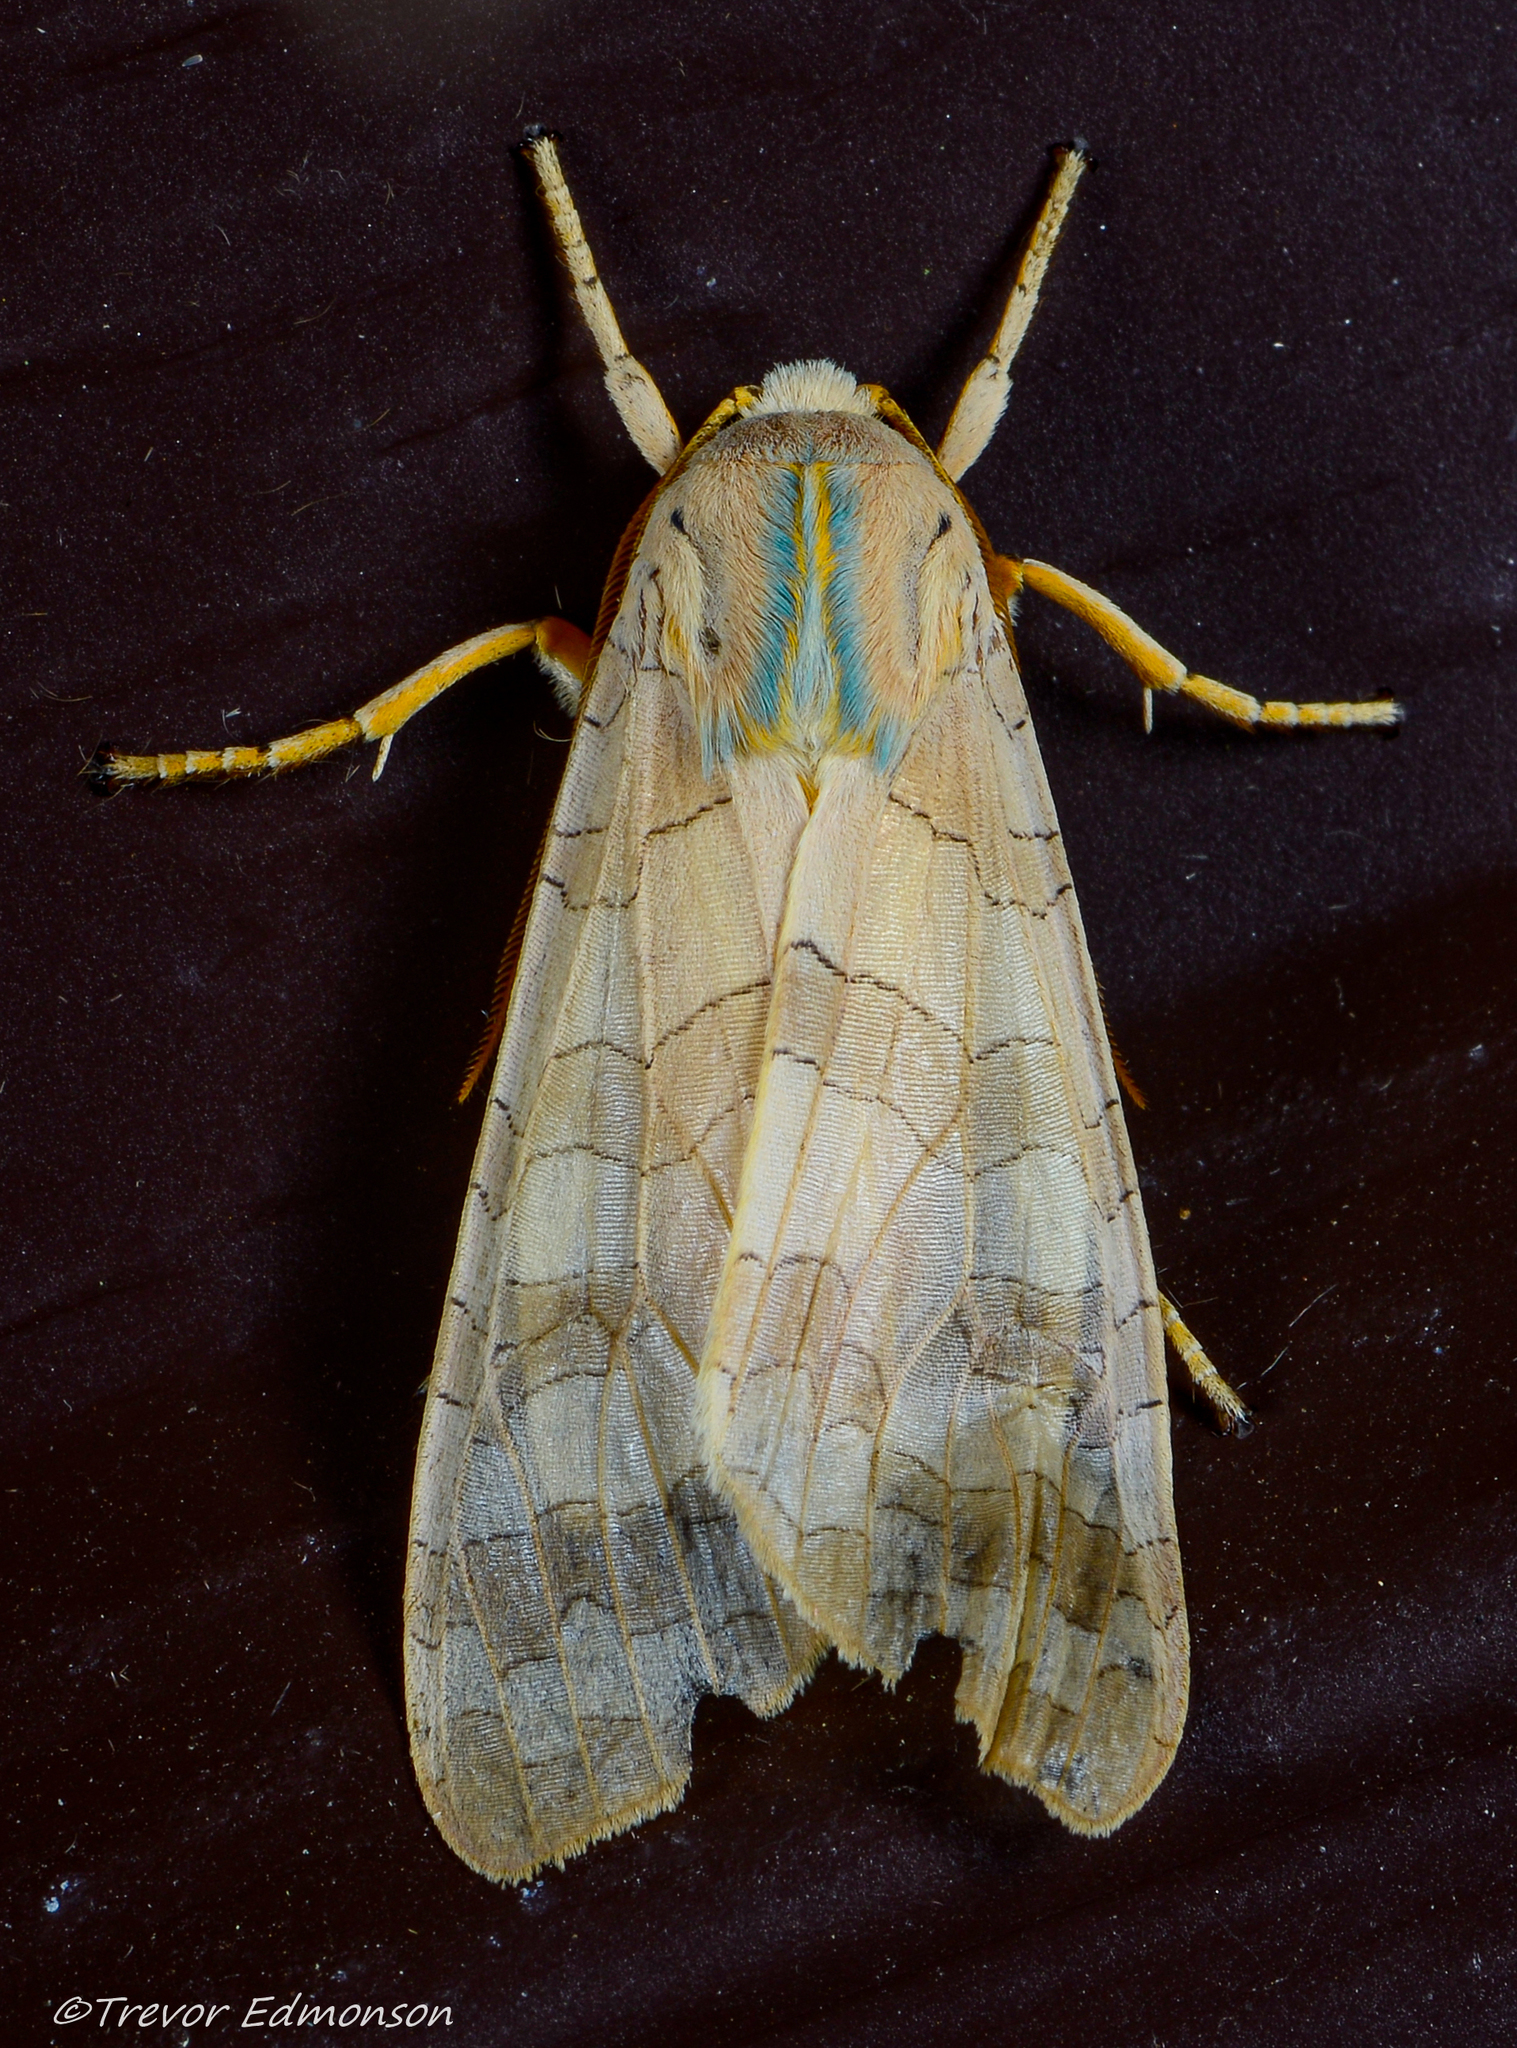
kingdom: Animalia
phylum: Arthropoda
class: Insecta
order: Lepidoptera
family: Erebidae
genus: Halysidota
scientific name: Halysidota
